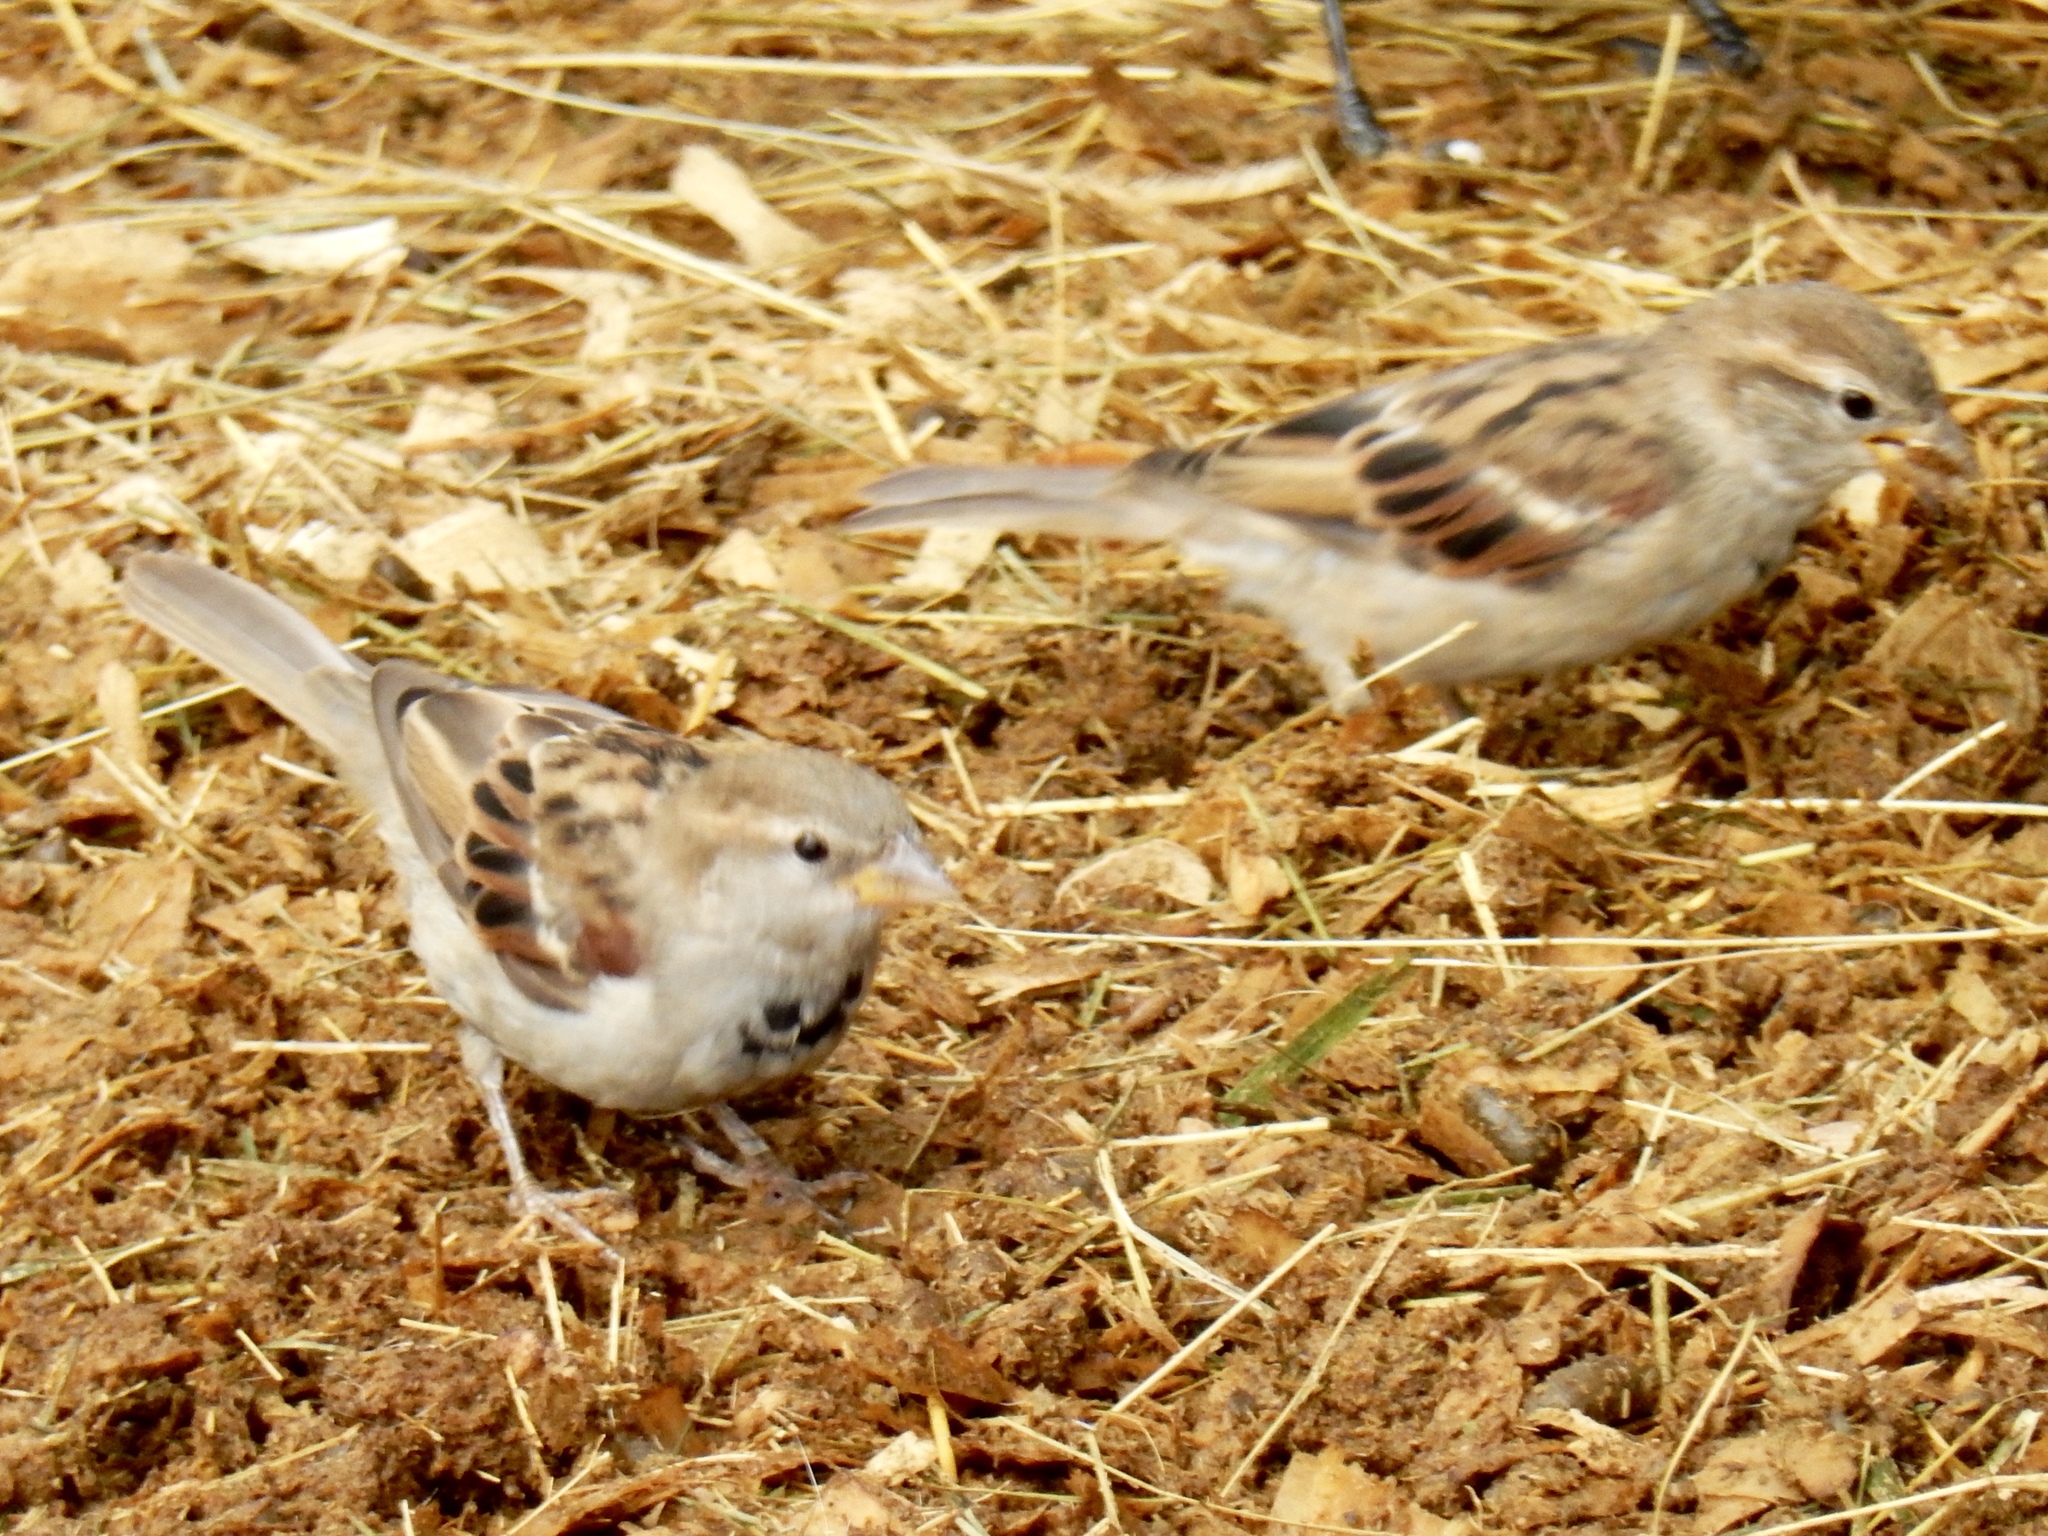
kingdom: Animalia
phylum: Chordata
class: Aves
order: Passeriformes
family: Passeridae
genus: Passer
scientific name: Passer domesticus
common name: House sparrow
